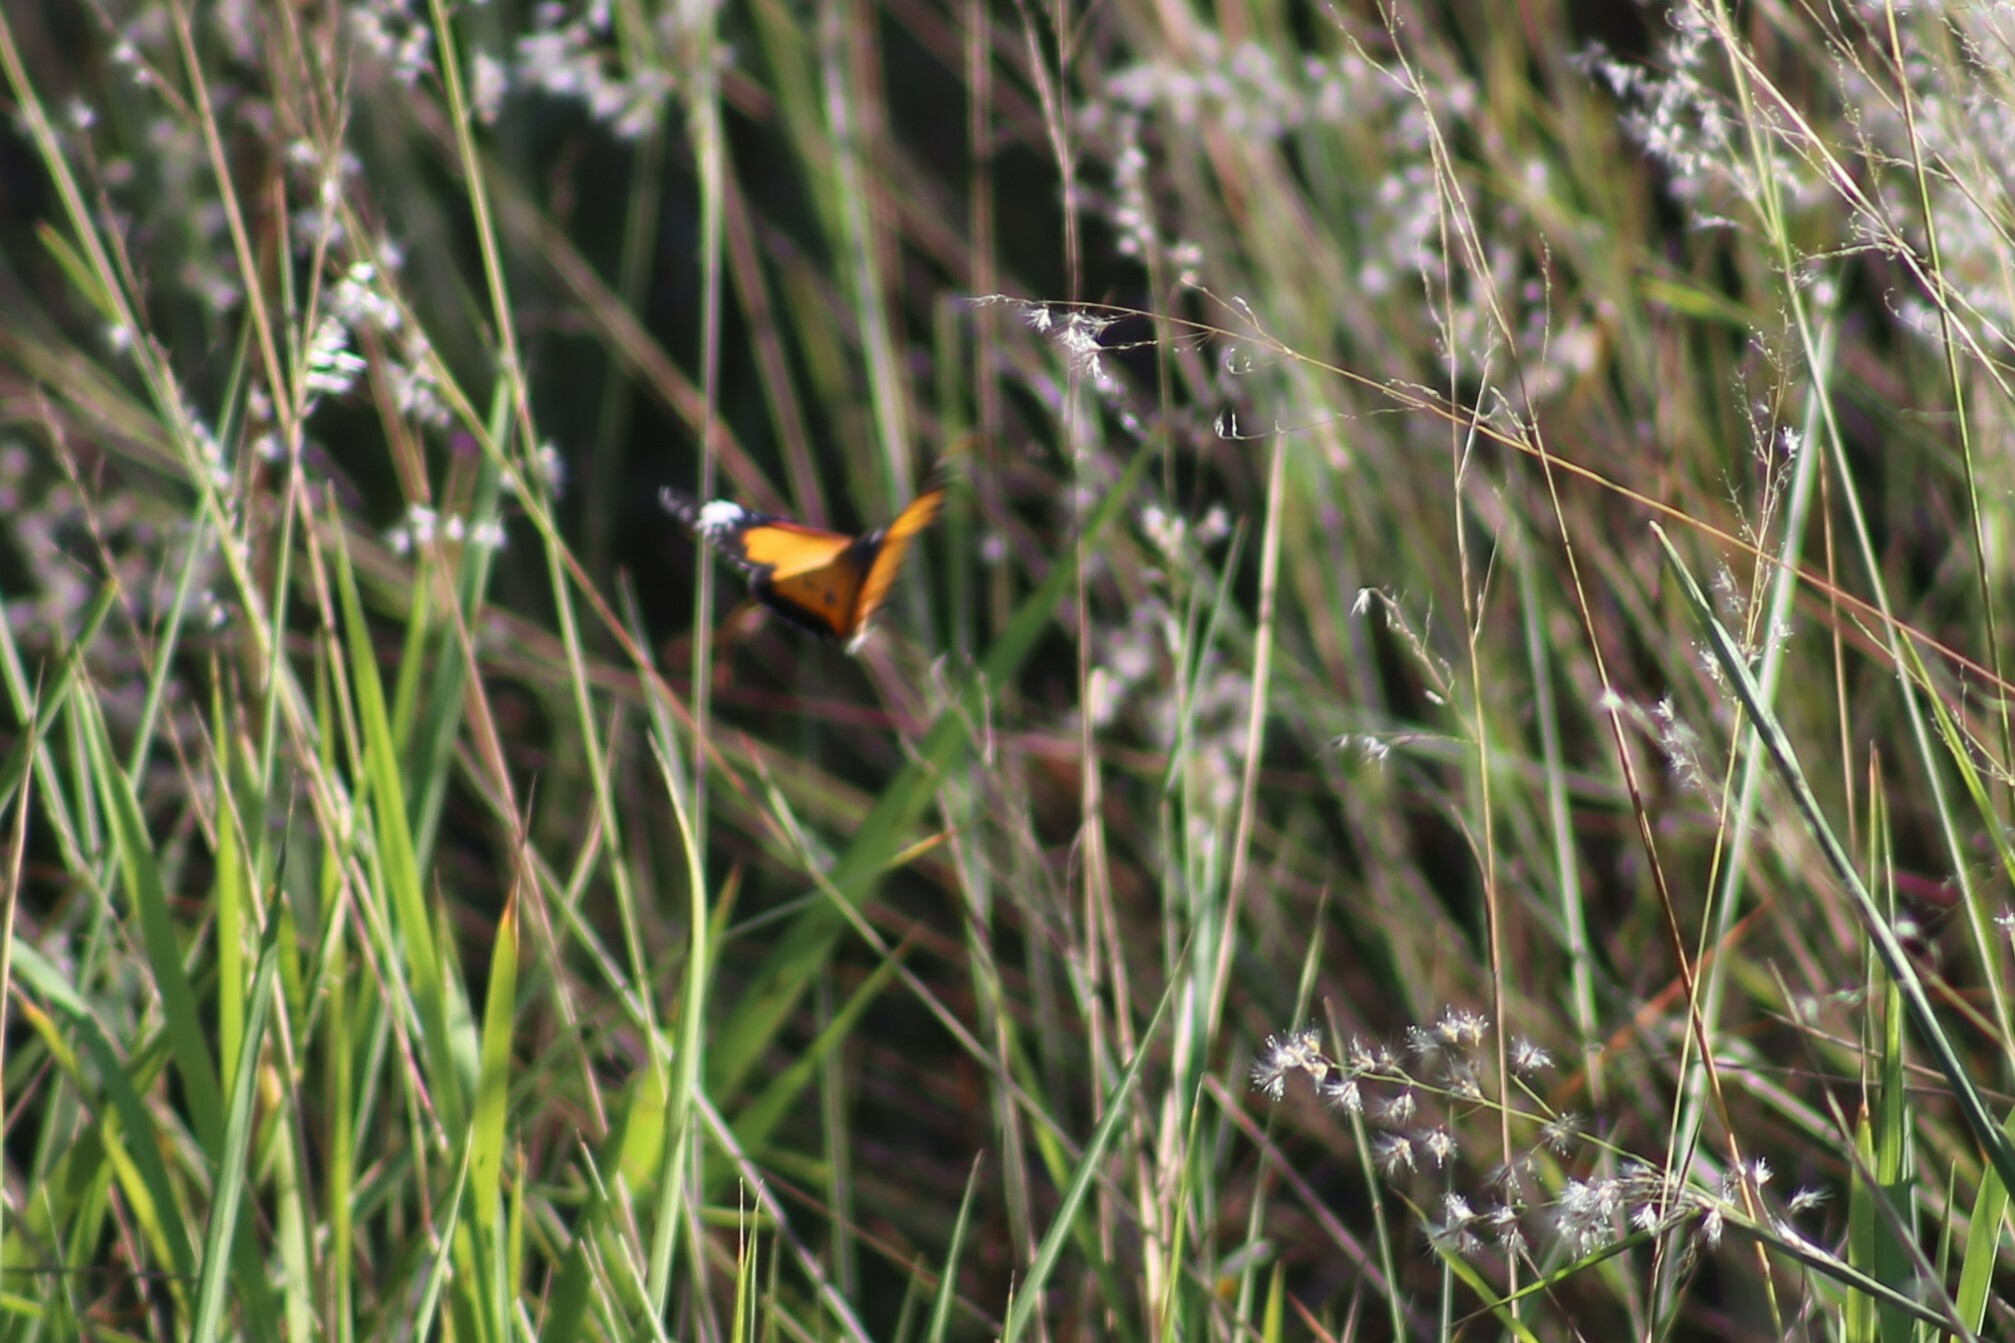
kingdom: Animalia
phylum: Arthropoda
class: Insecta
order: Lepidoptera
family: Nymphalidae
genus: Danaus
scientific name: Danaus chrysippus
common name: Plain tiger
